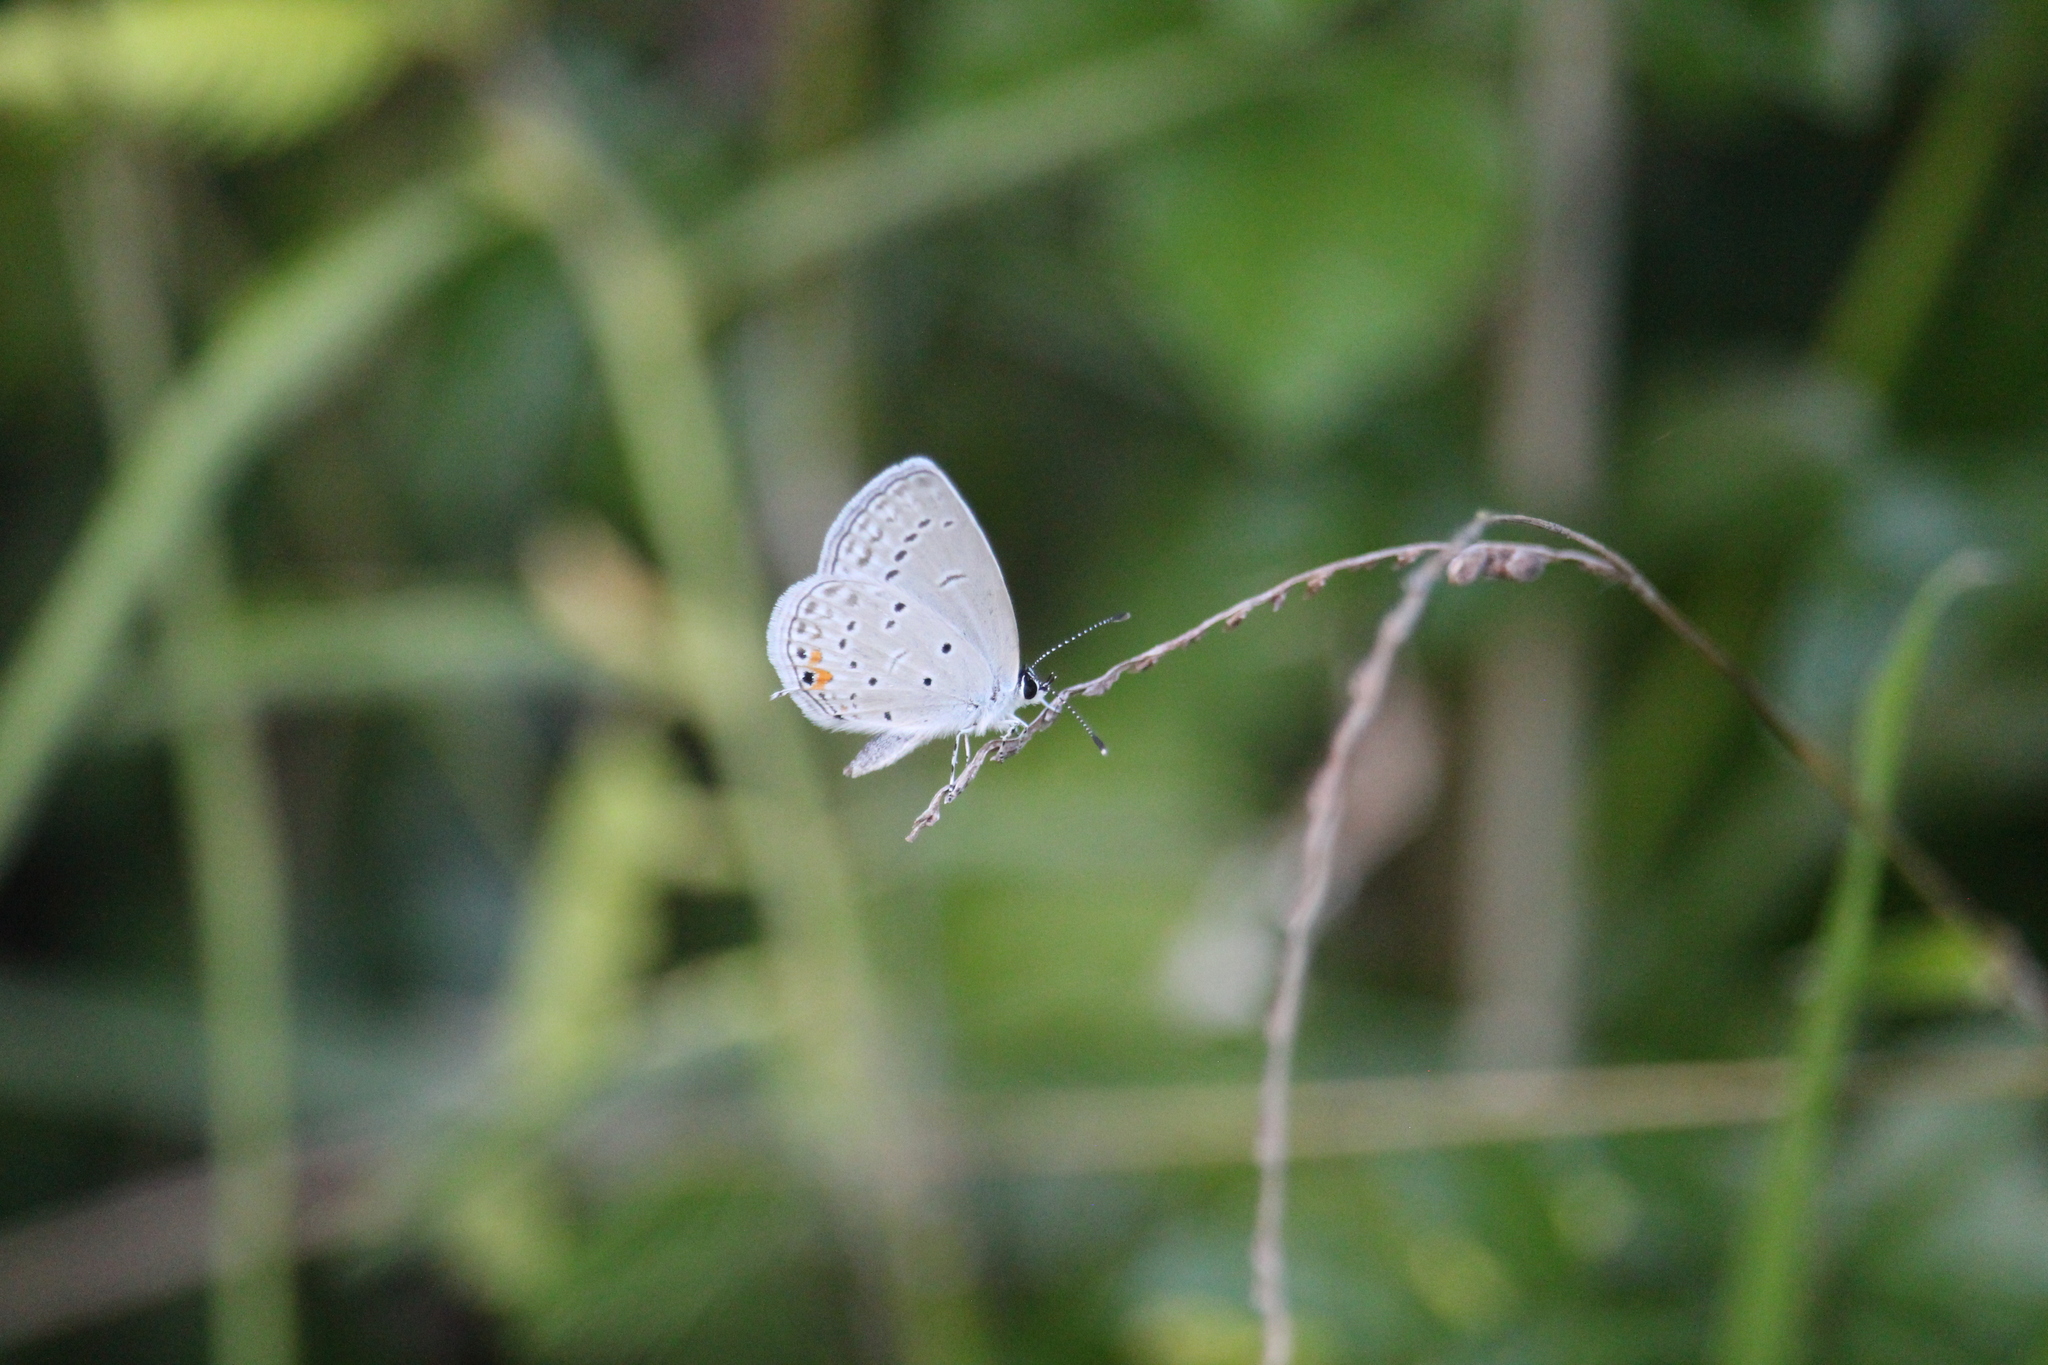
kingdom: Animalia
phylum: Arthropoda
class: Insecta
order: Lepidoptera
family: Lycaenidae
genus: Elkalyce
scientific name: Elkalyce comyntas
